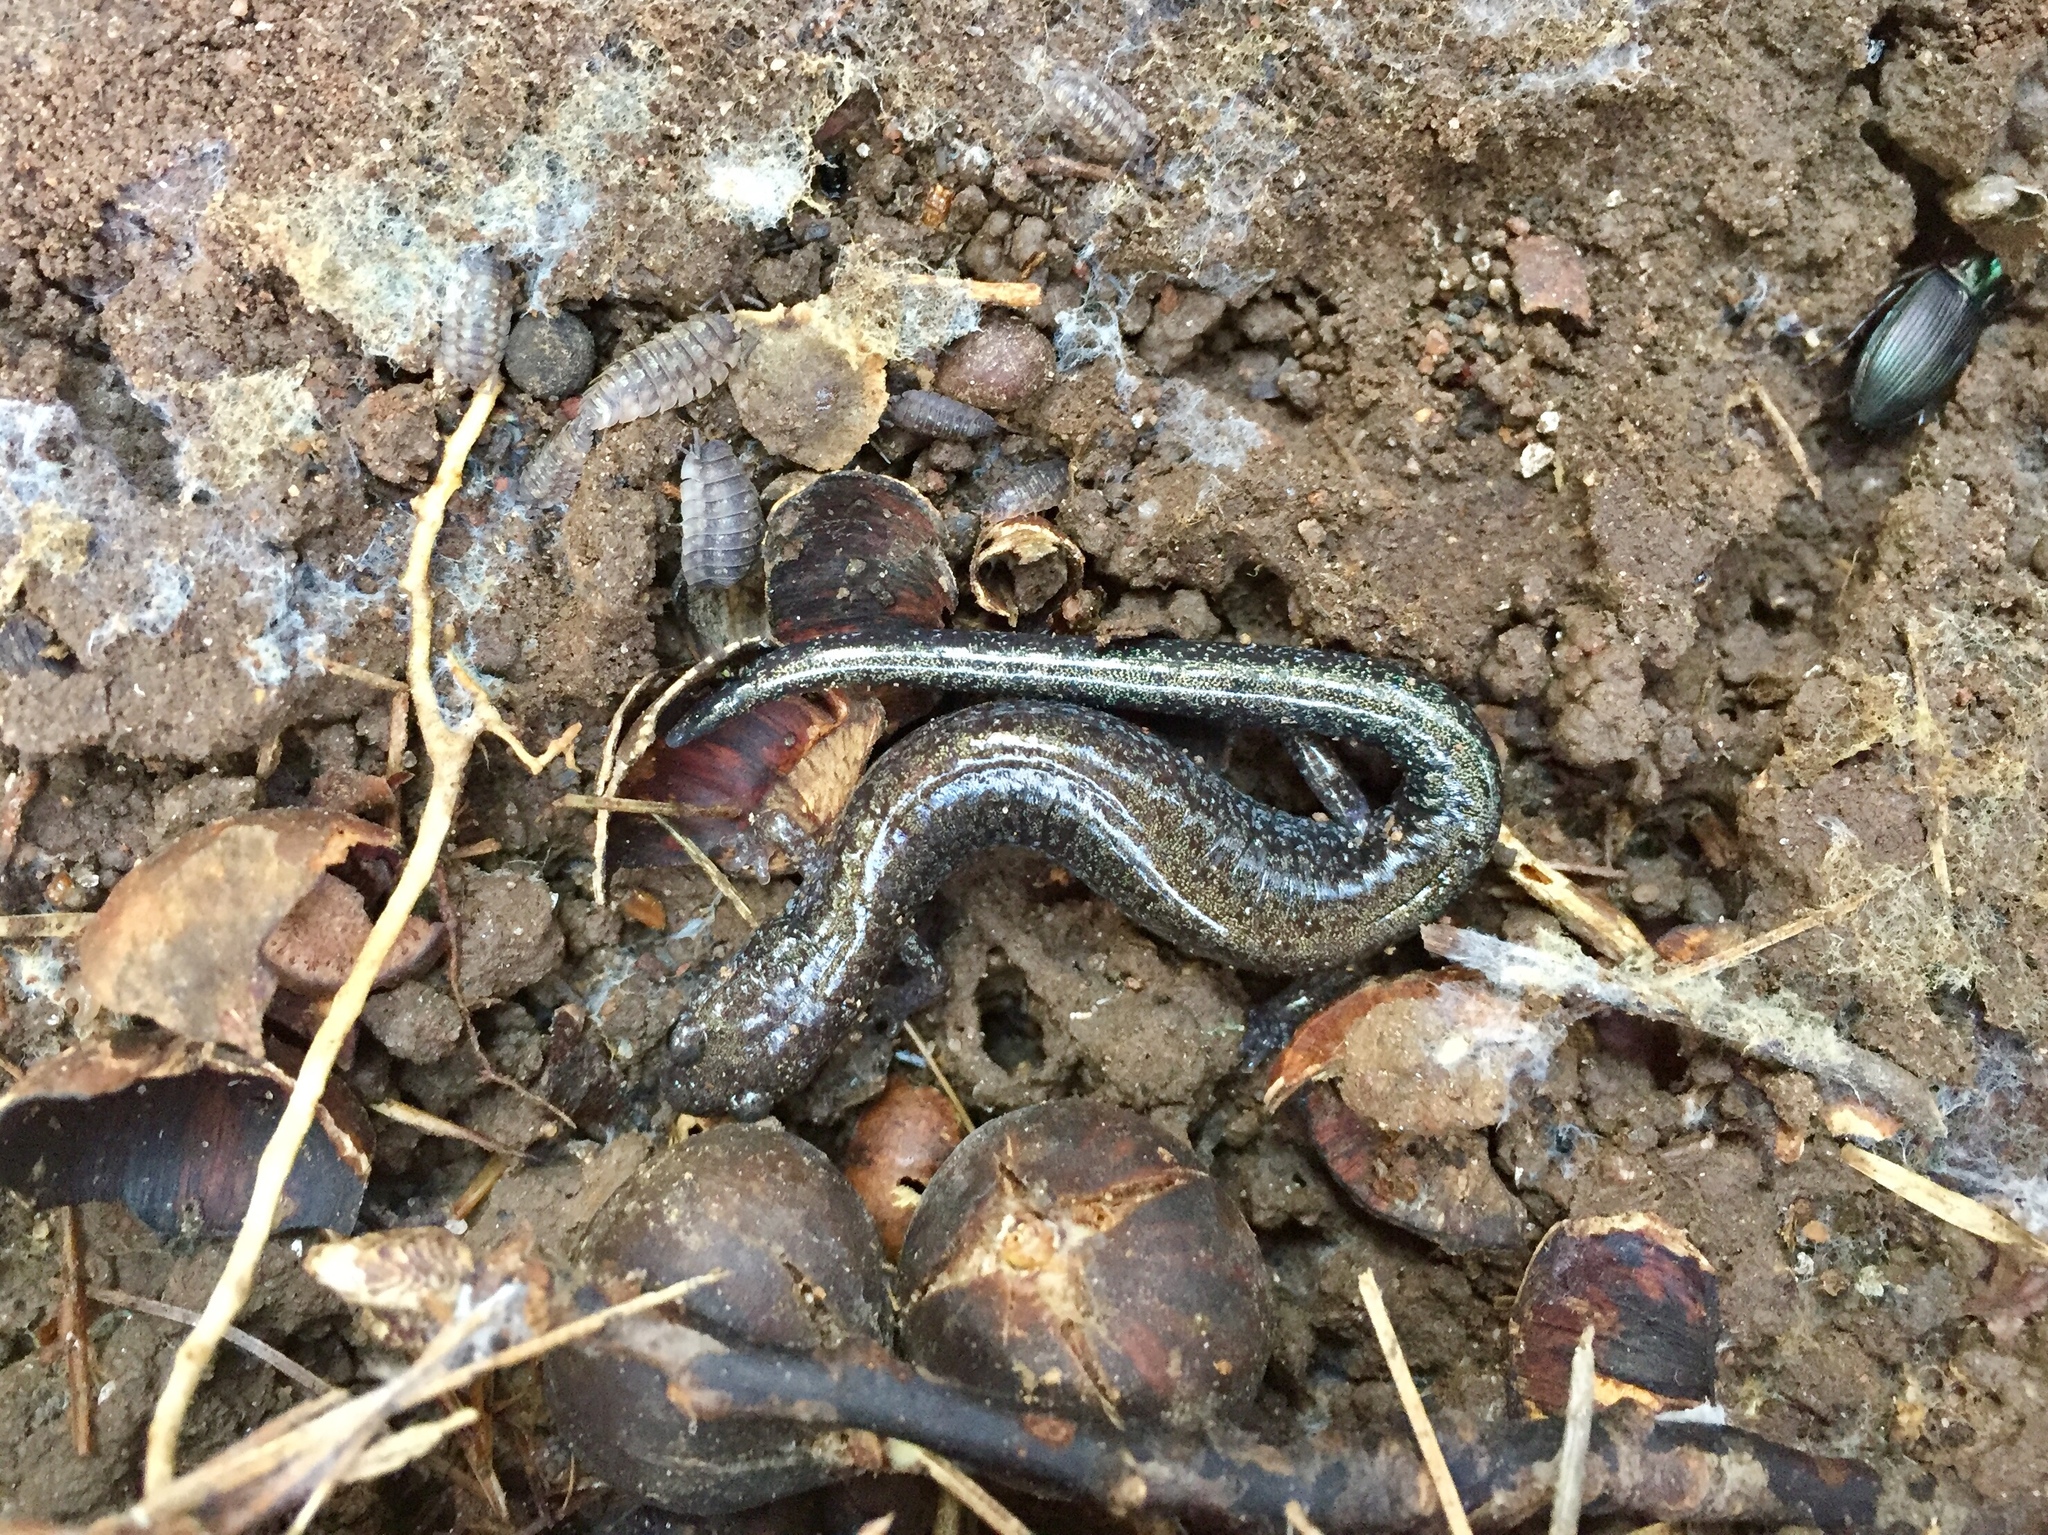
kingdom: Animalia
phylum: Chordata
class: Amphibia
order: Caudata
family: Plethodontidae
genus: Plethodon
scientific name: Plethodon cinereus
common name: Redback salamander
